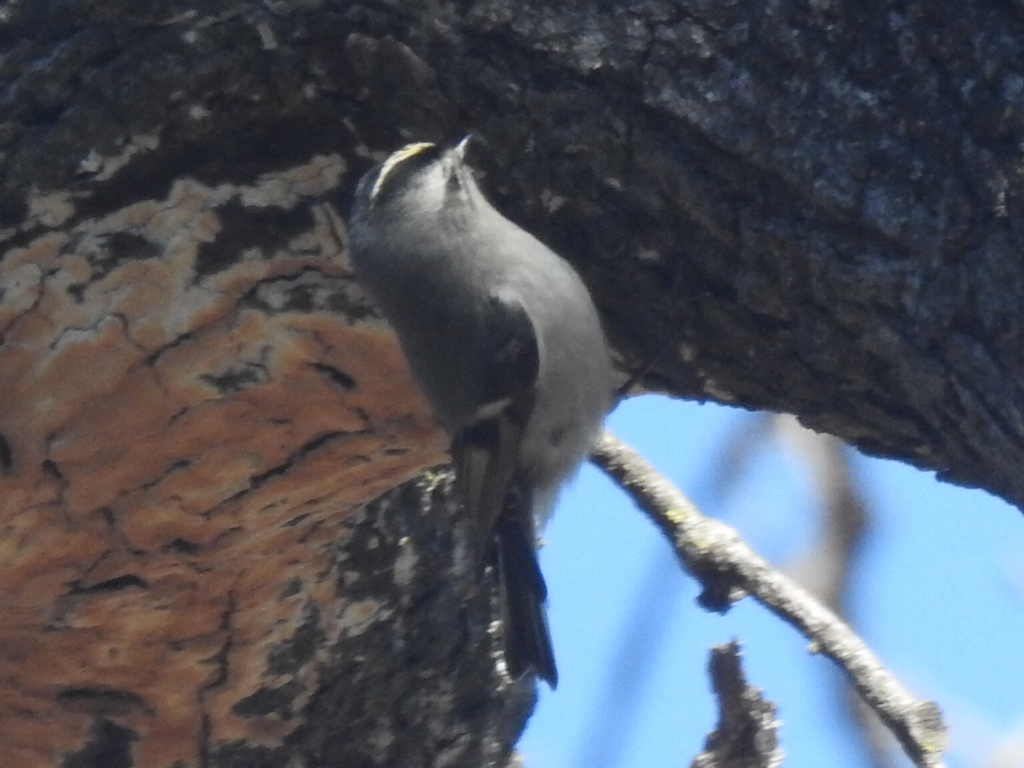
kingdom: Animalia
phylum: Chordata
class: Aves
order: Passeriformes
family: Regulidae
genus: Regulus
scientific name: Regulus satrapa
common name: Golden-crowned kinglet
